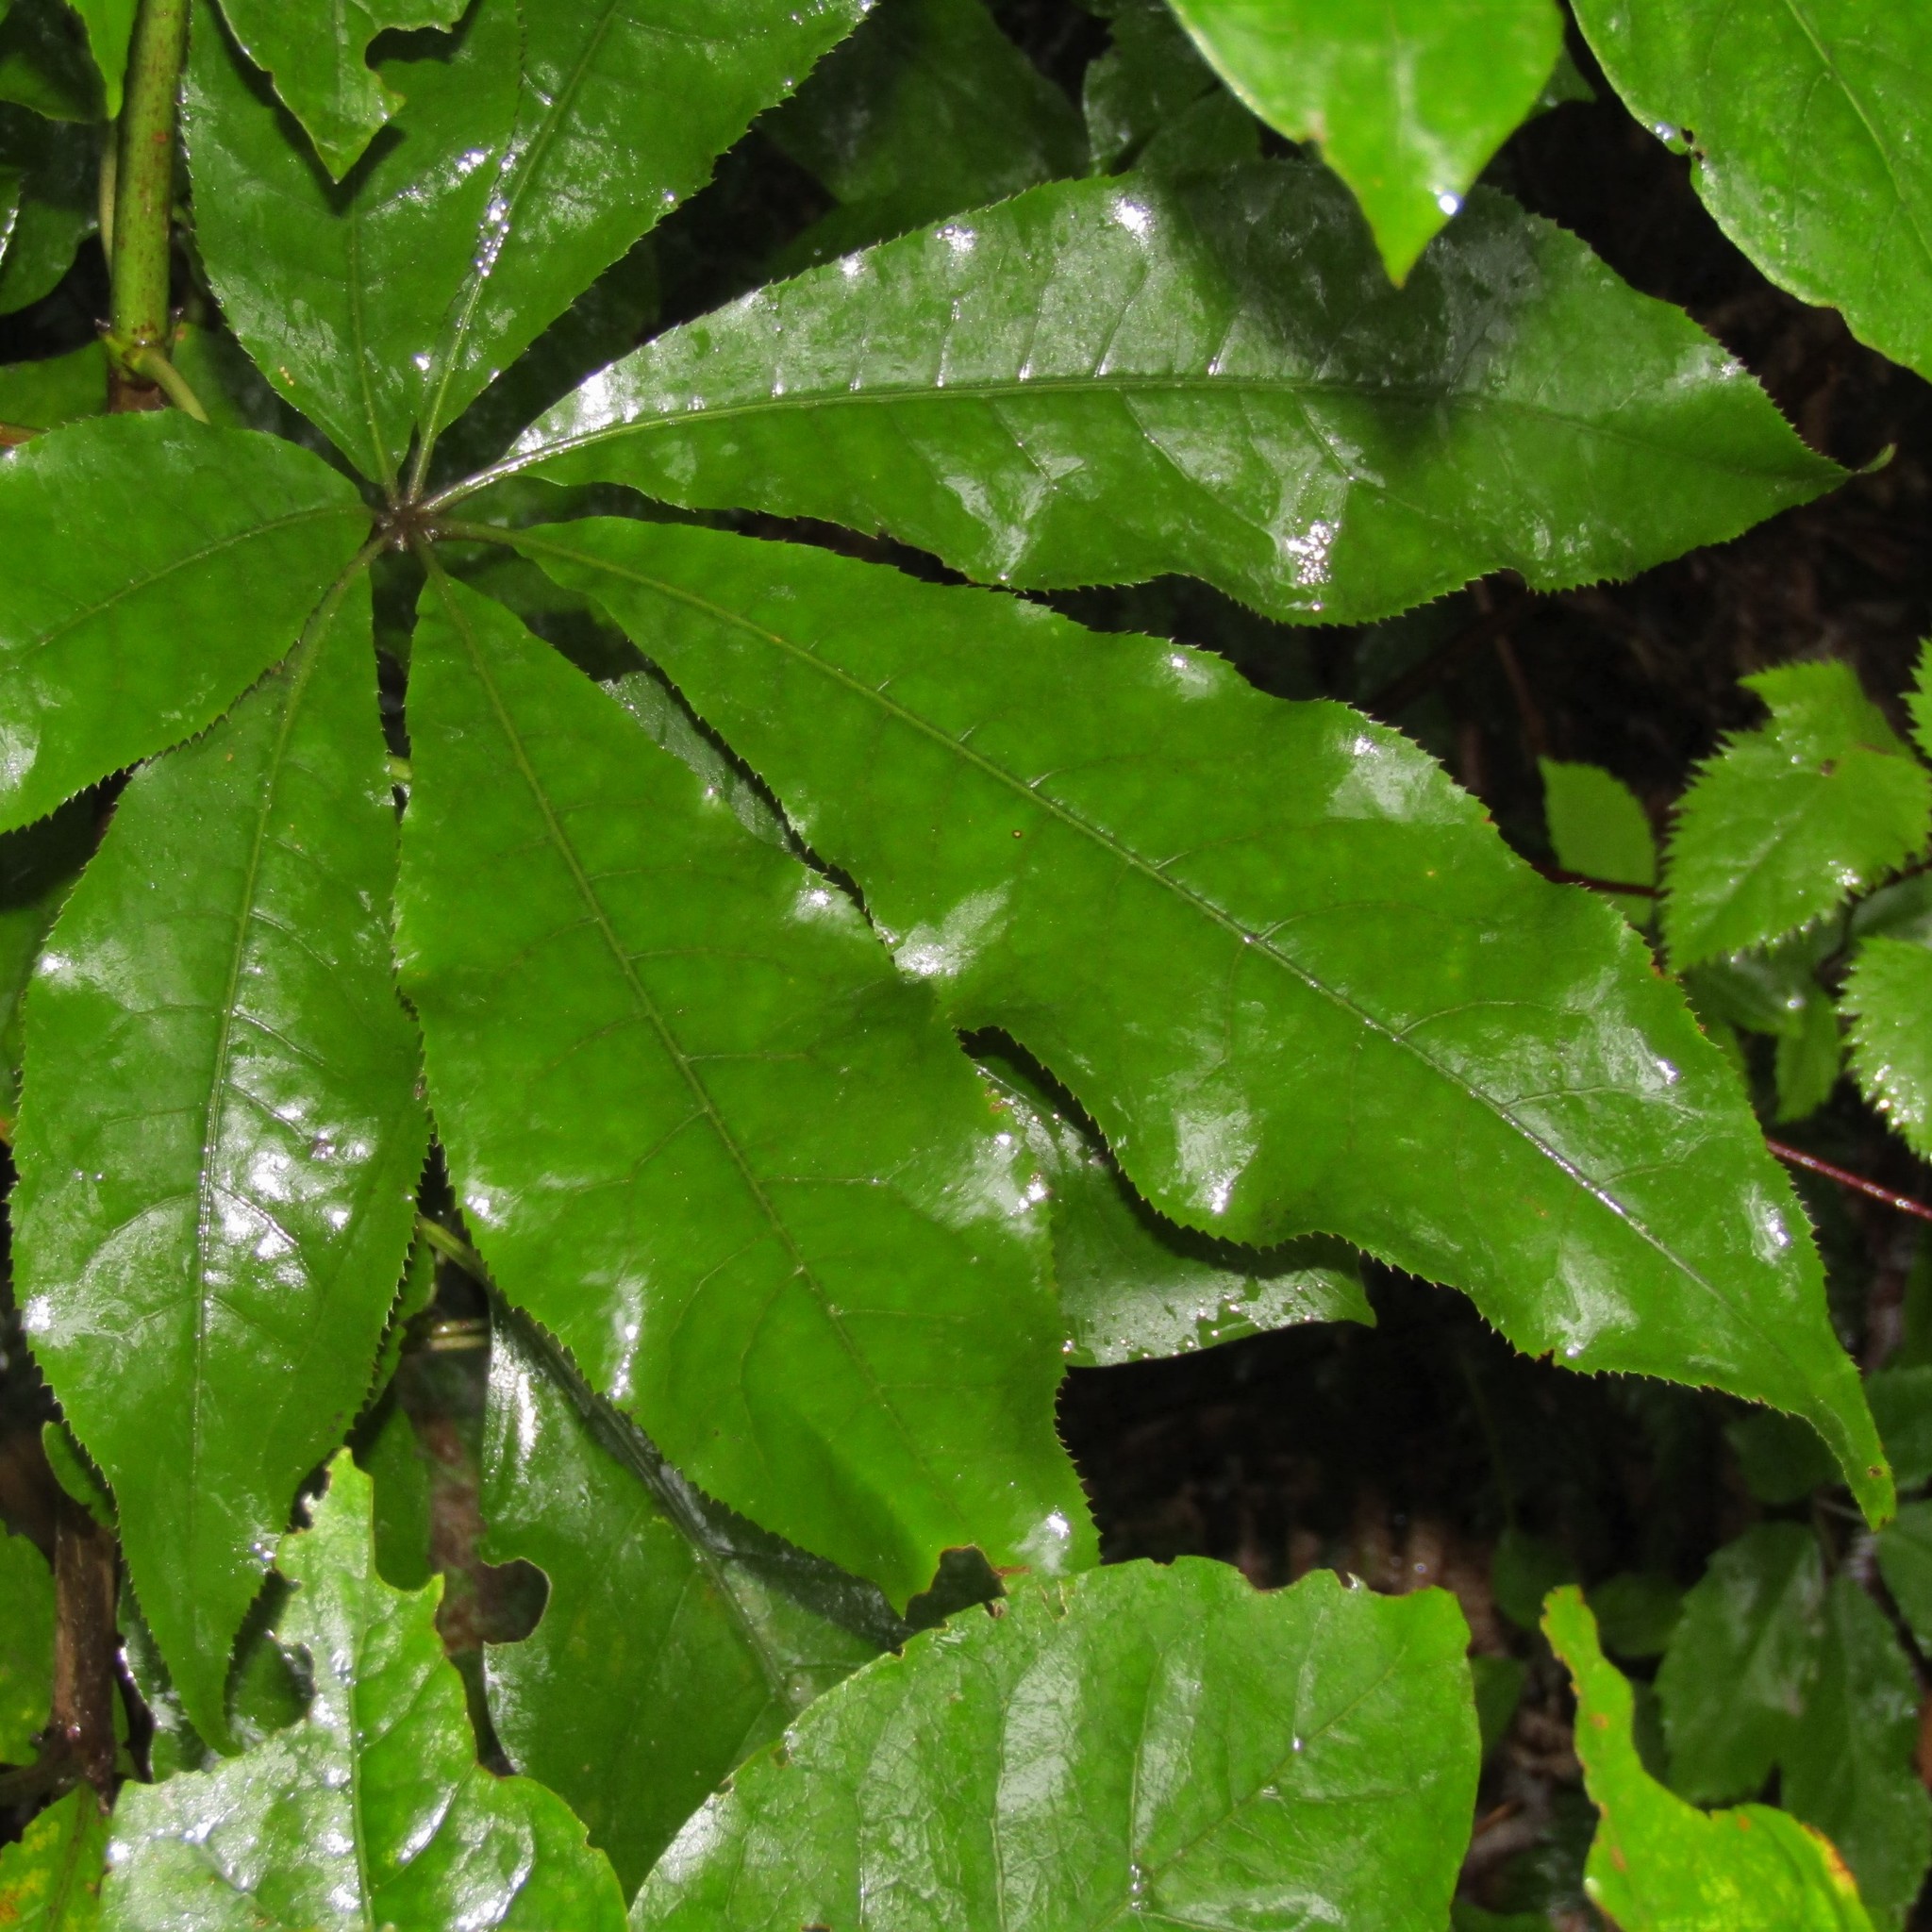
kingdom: Plantae
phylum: Tracheophyta
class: Magnoliopsida
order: Apiales
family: Araliaceae
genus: Schefflera
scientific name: Schefflera digitata
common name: Pate
